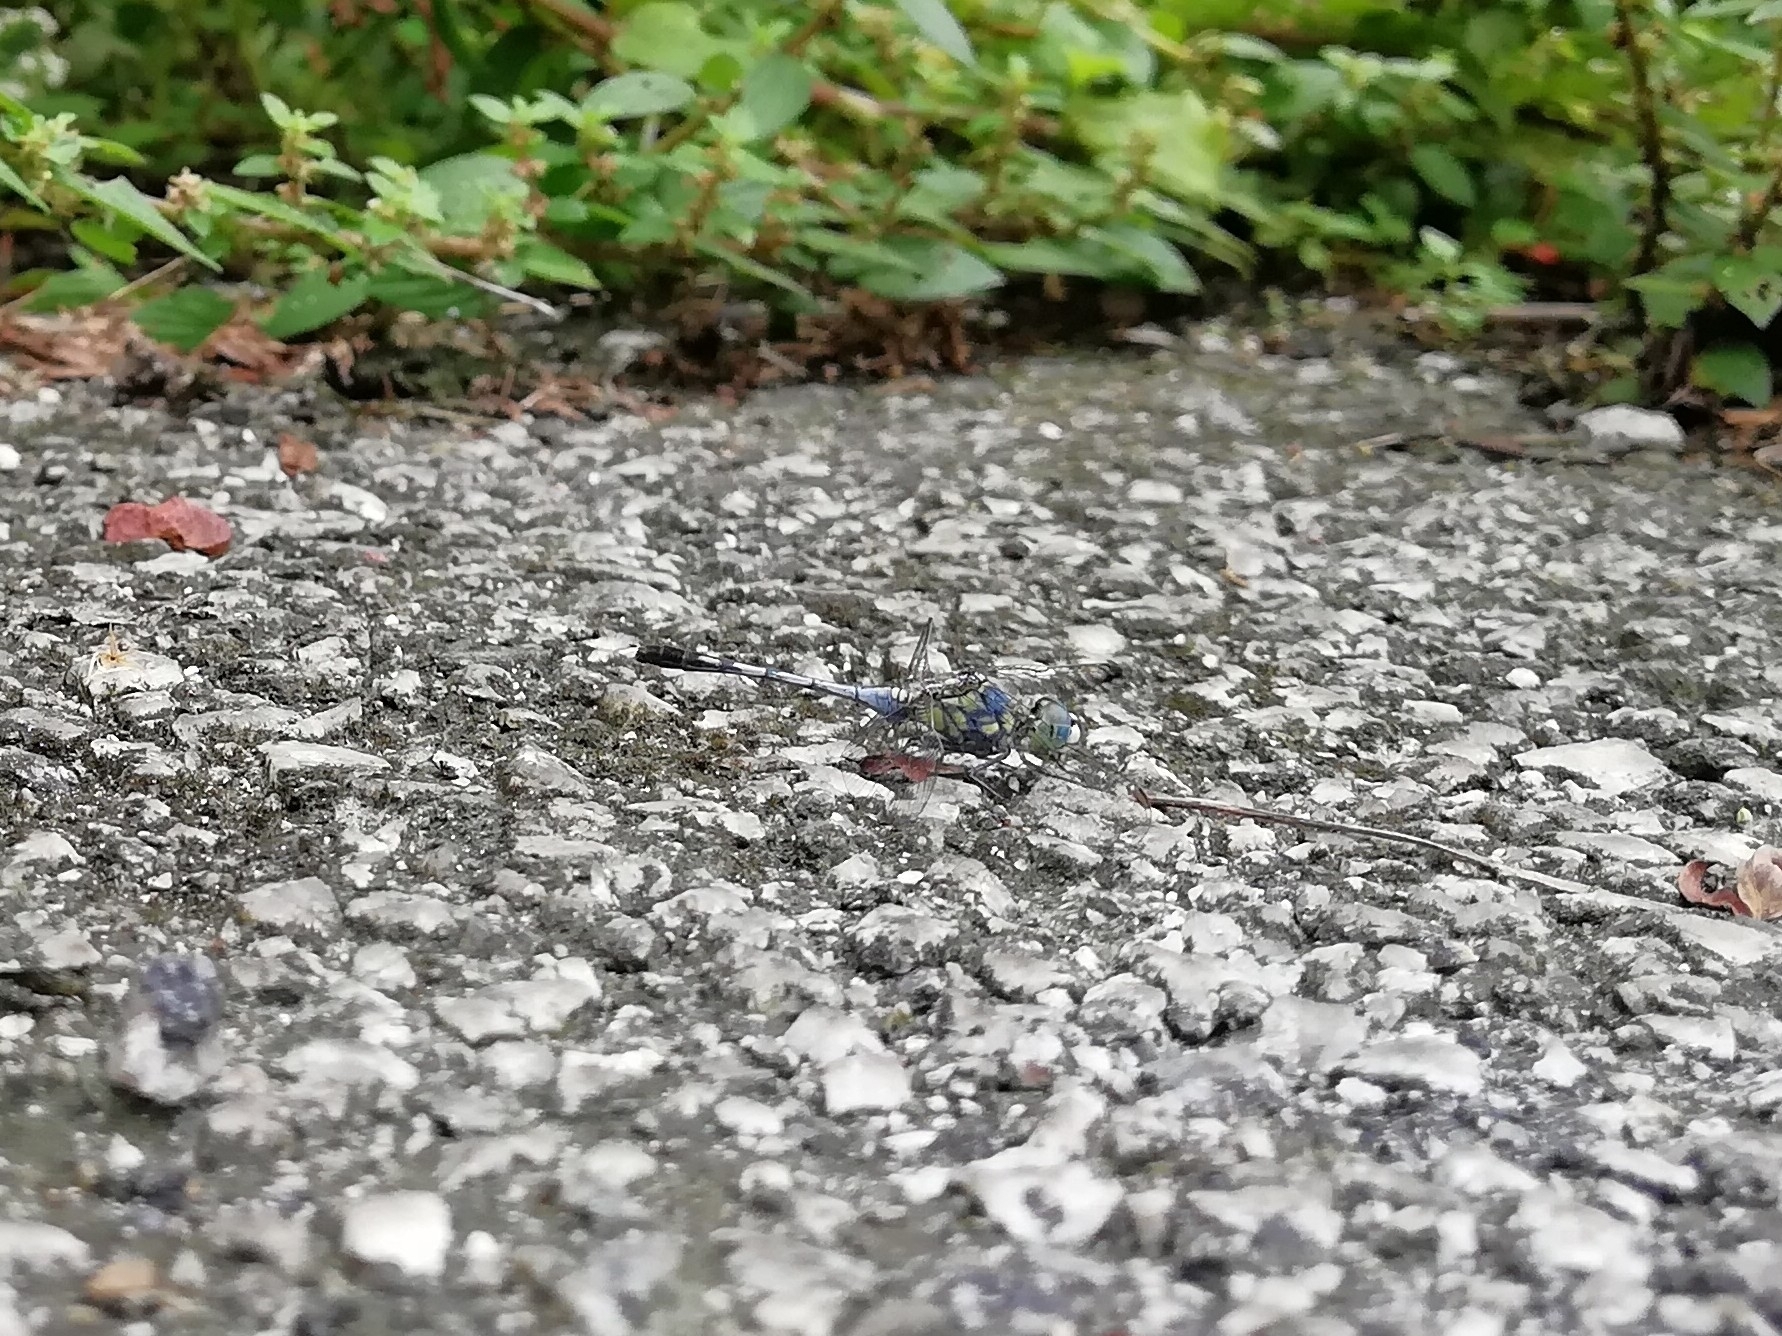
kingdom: Animalia
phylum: Arthropoda
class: Insecta
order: Odonata
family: Libellulidae
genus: Diplacodes
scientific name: Diplacodes trivialis
